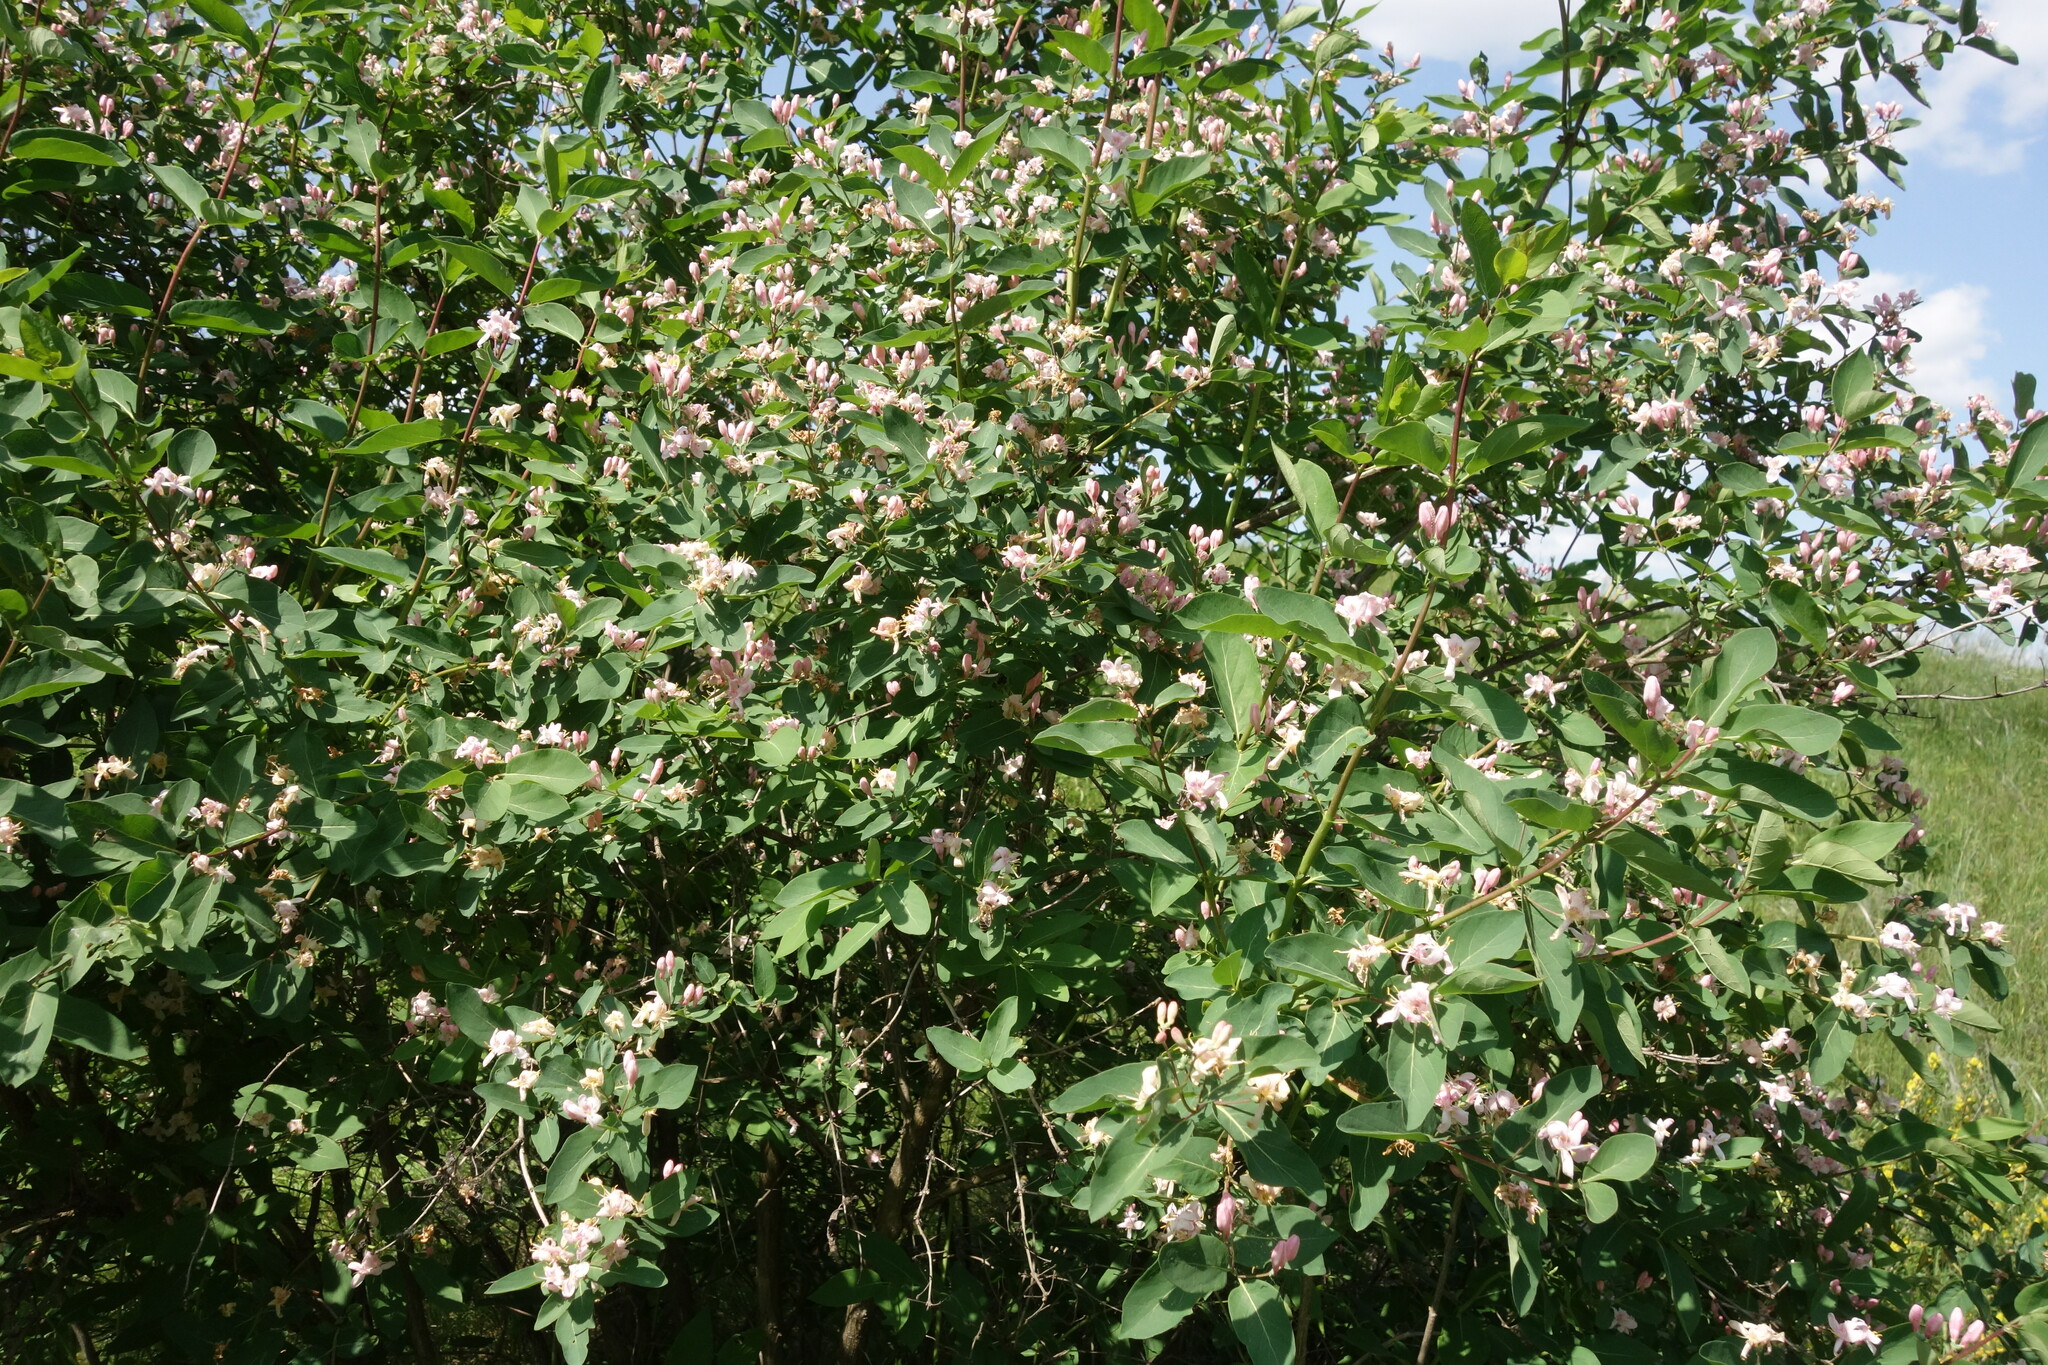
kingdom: Plantae
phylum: Tracheophyta
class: Magnoliopsida
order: Dipsacales
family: Caprifoliaceae
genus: Lonicera
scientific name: Lonicera tatarica
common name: Tatarian honeysuckle
